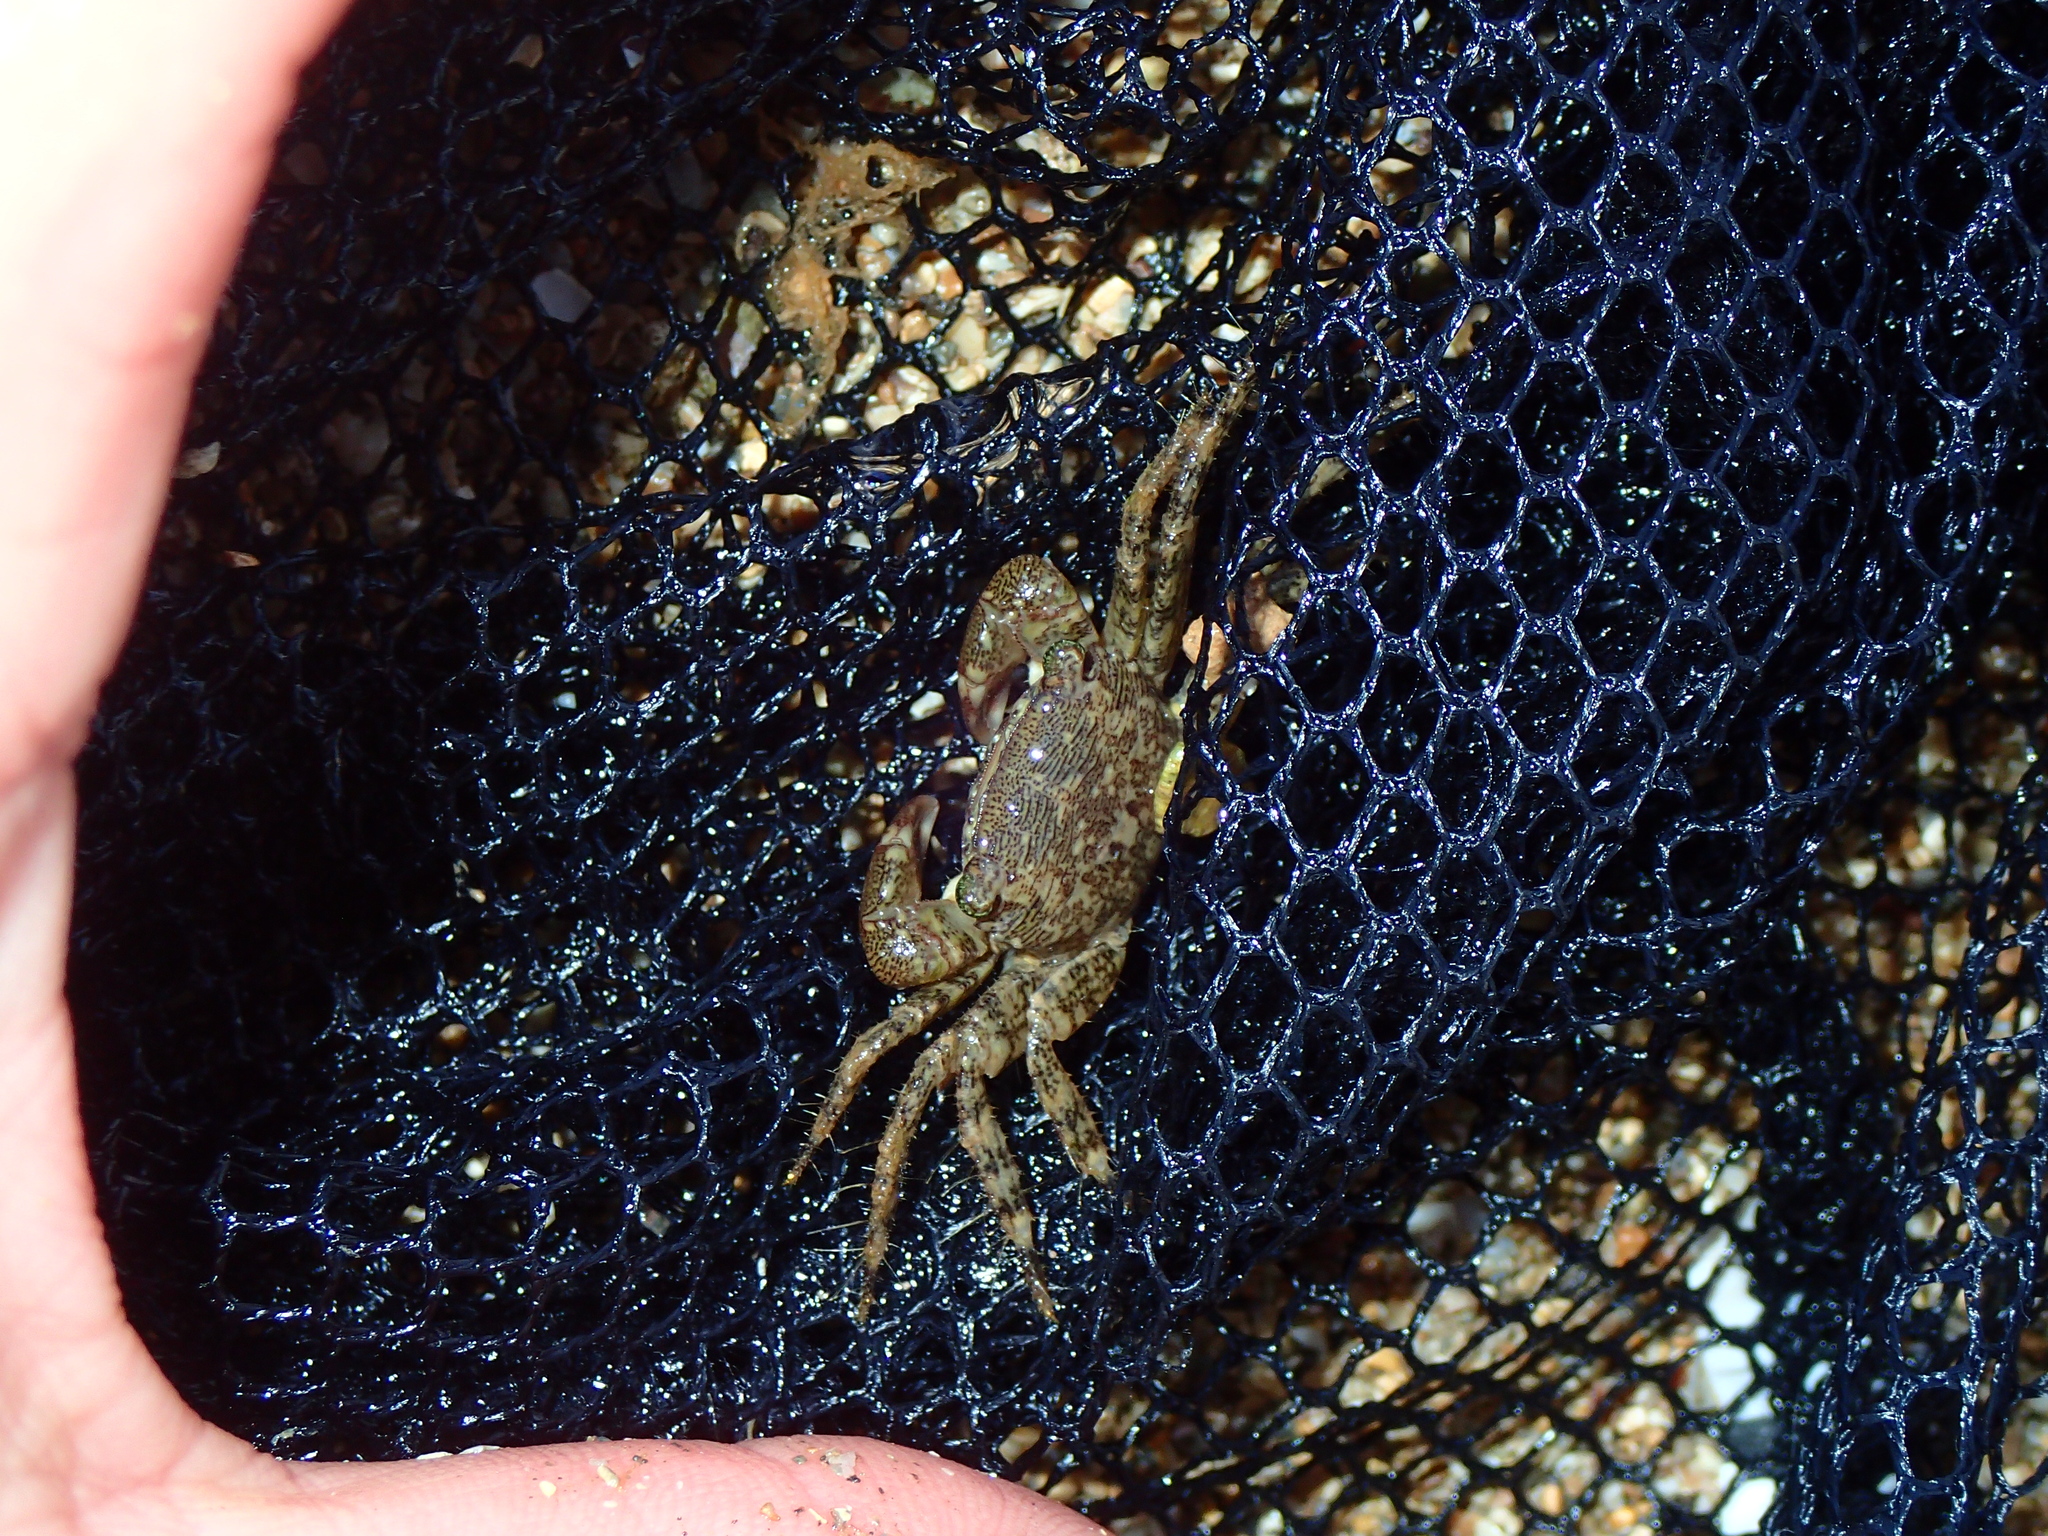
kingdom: Animalia
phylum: Arthropoda
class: Malacostraca
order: Decapoda
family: Grapsidae
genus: Pachygrapsus
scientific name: Pachygrapsus marmoratus
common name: Marbled rock crab
